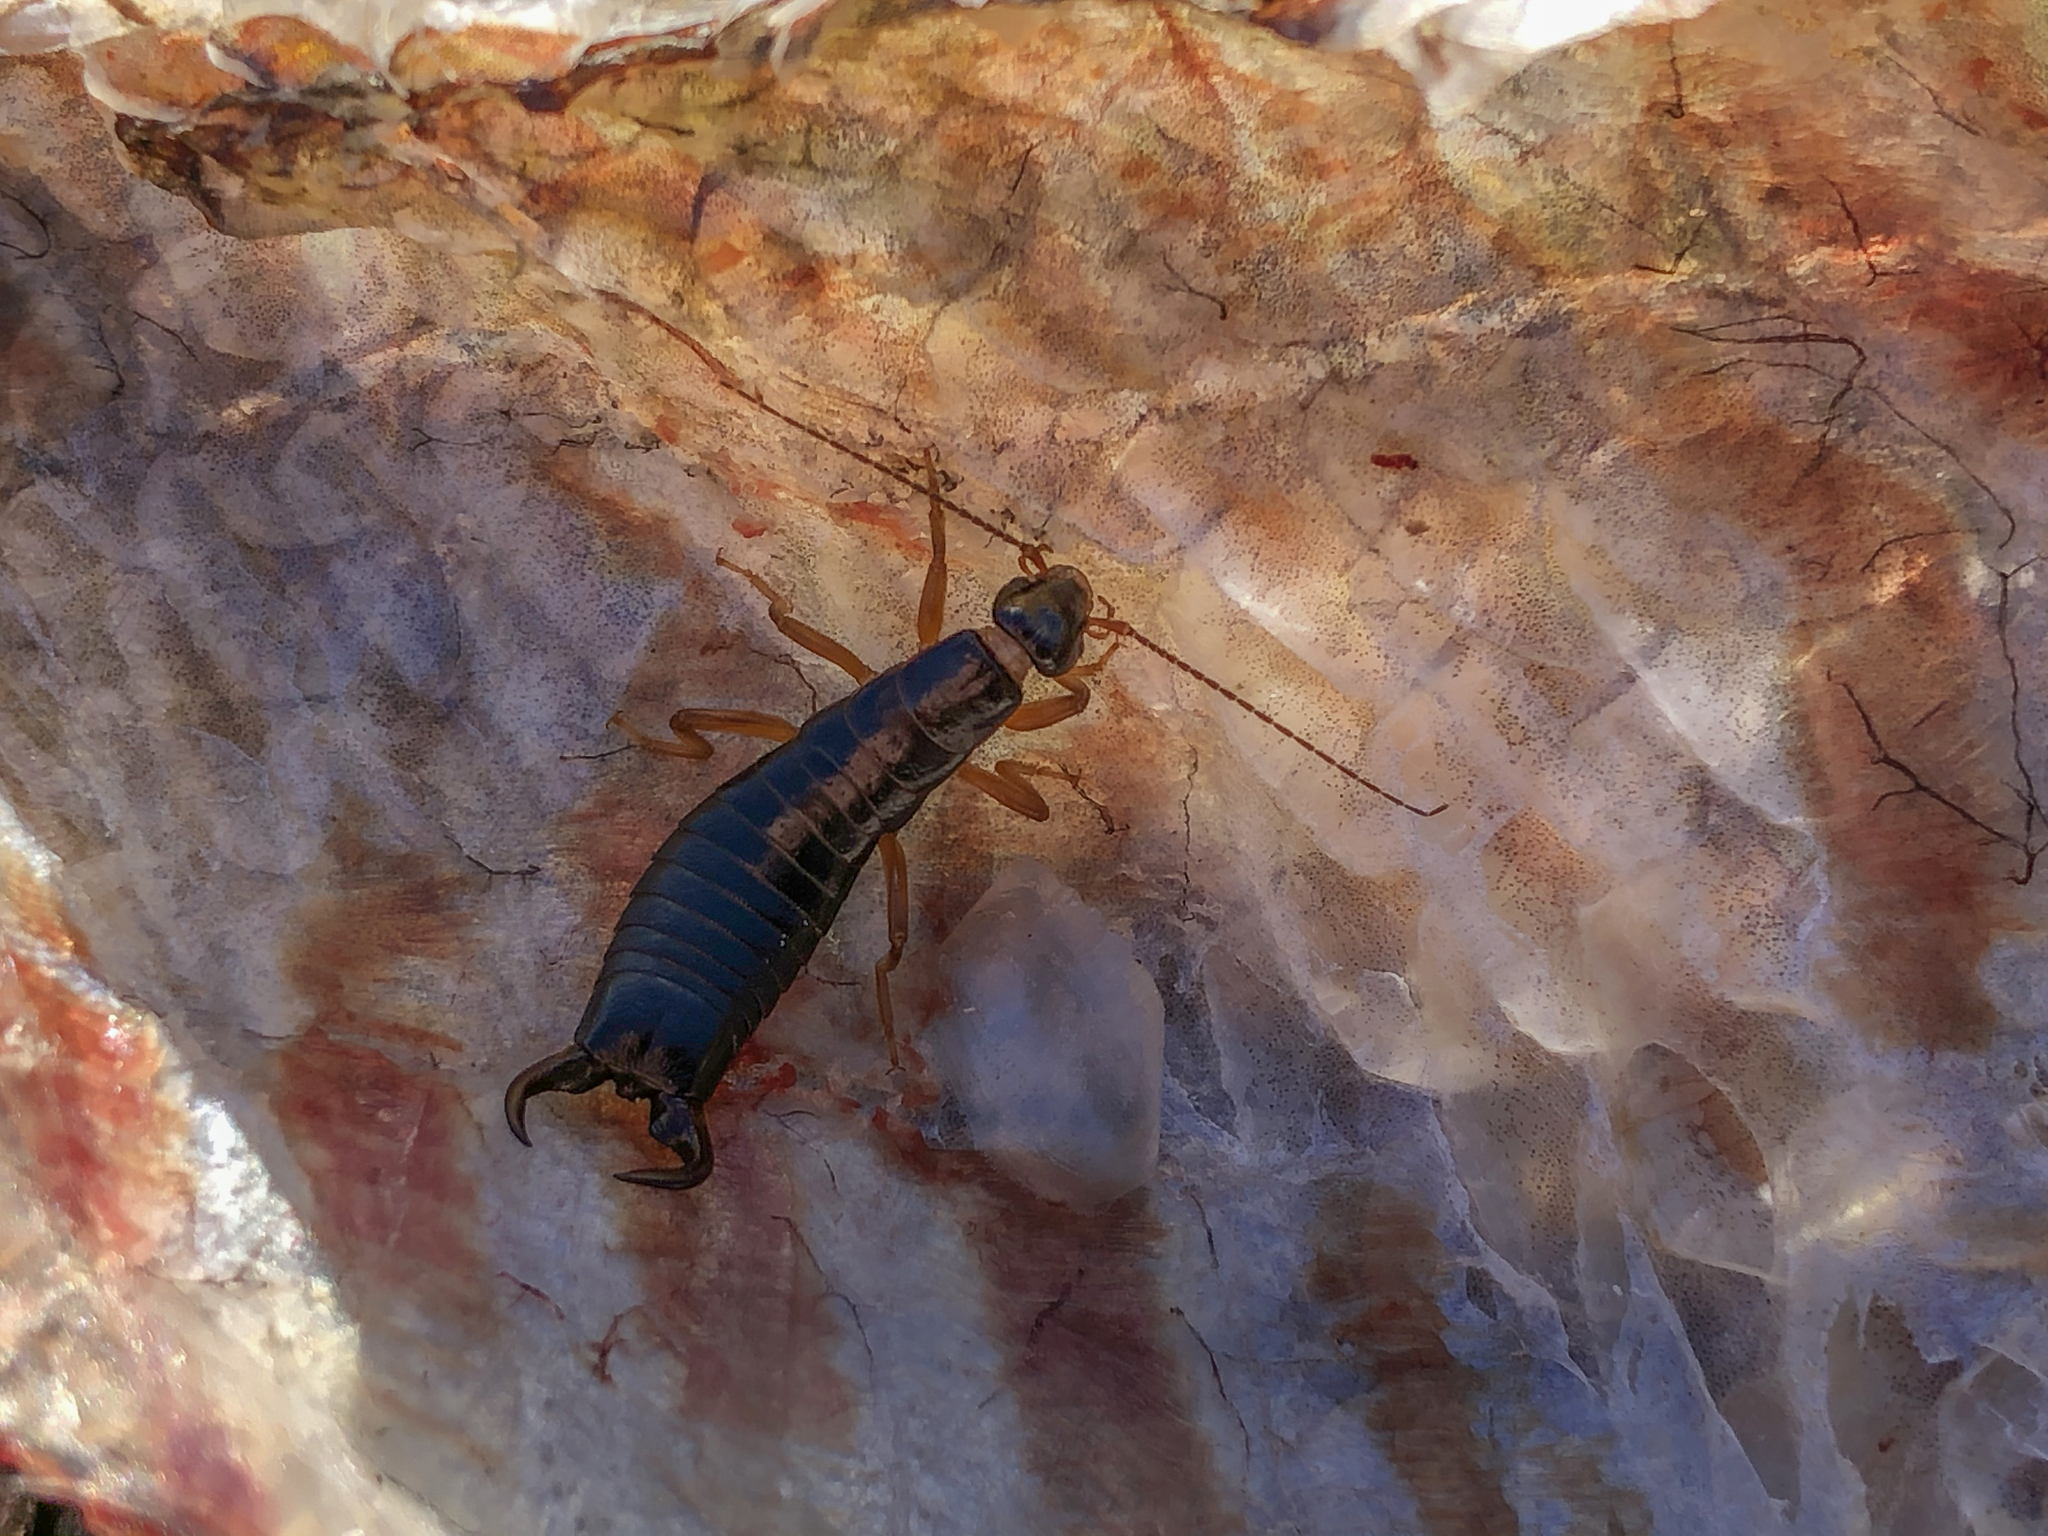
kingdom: Animalia
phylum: Arthropoda
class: Insecta
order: Dermaptera
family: Anisolabididae
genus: Anisolabis
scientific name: Anisolabis littorea
